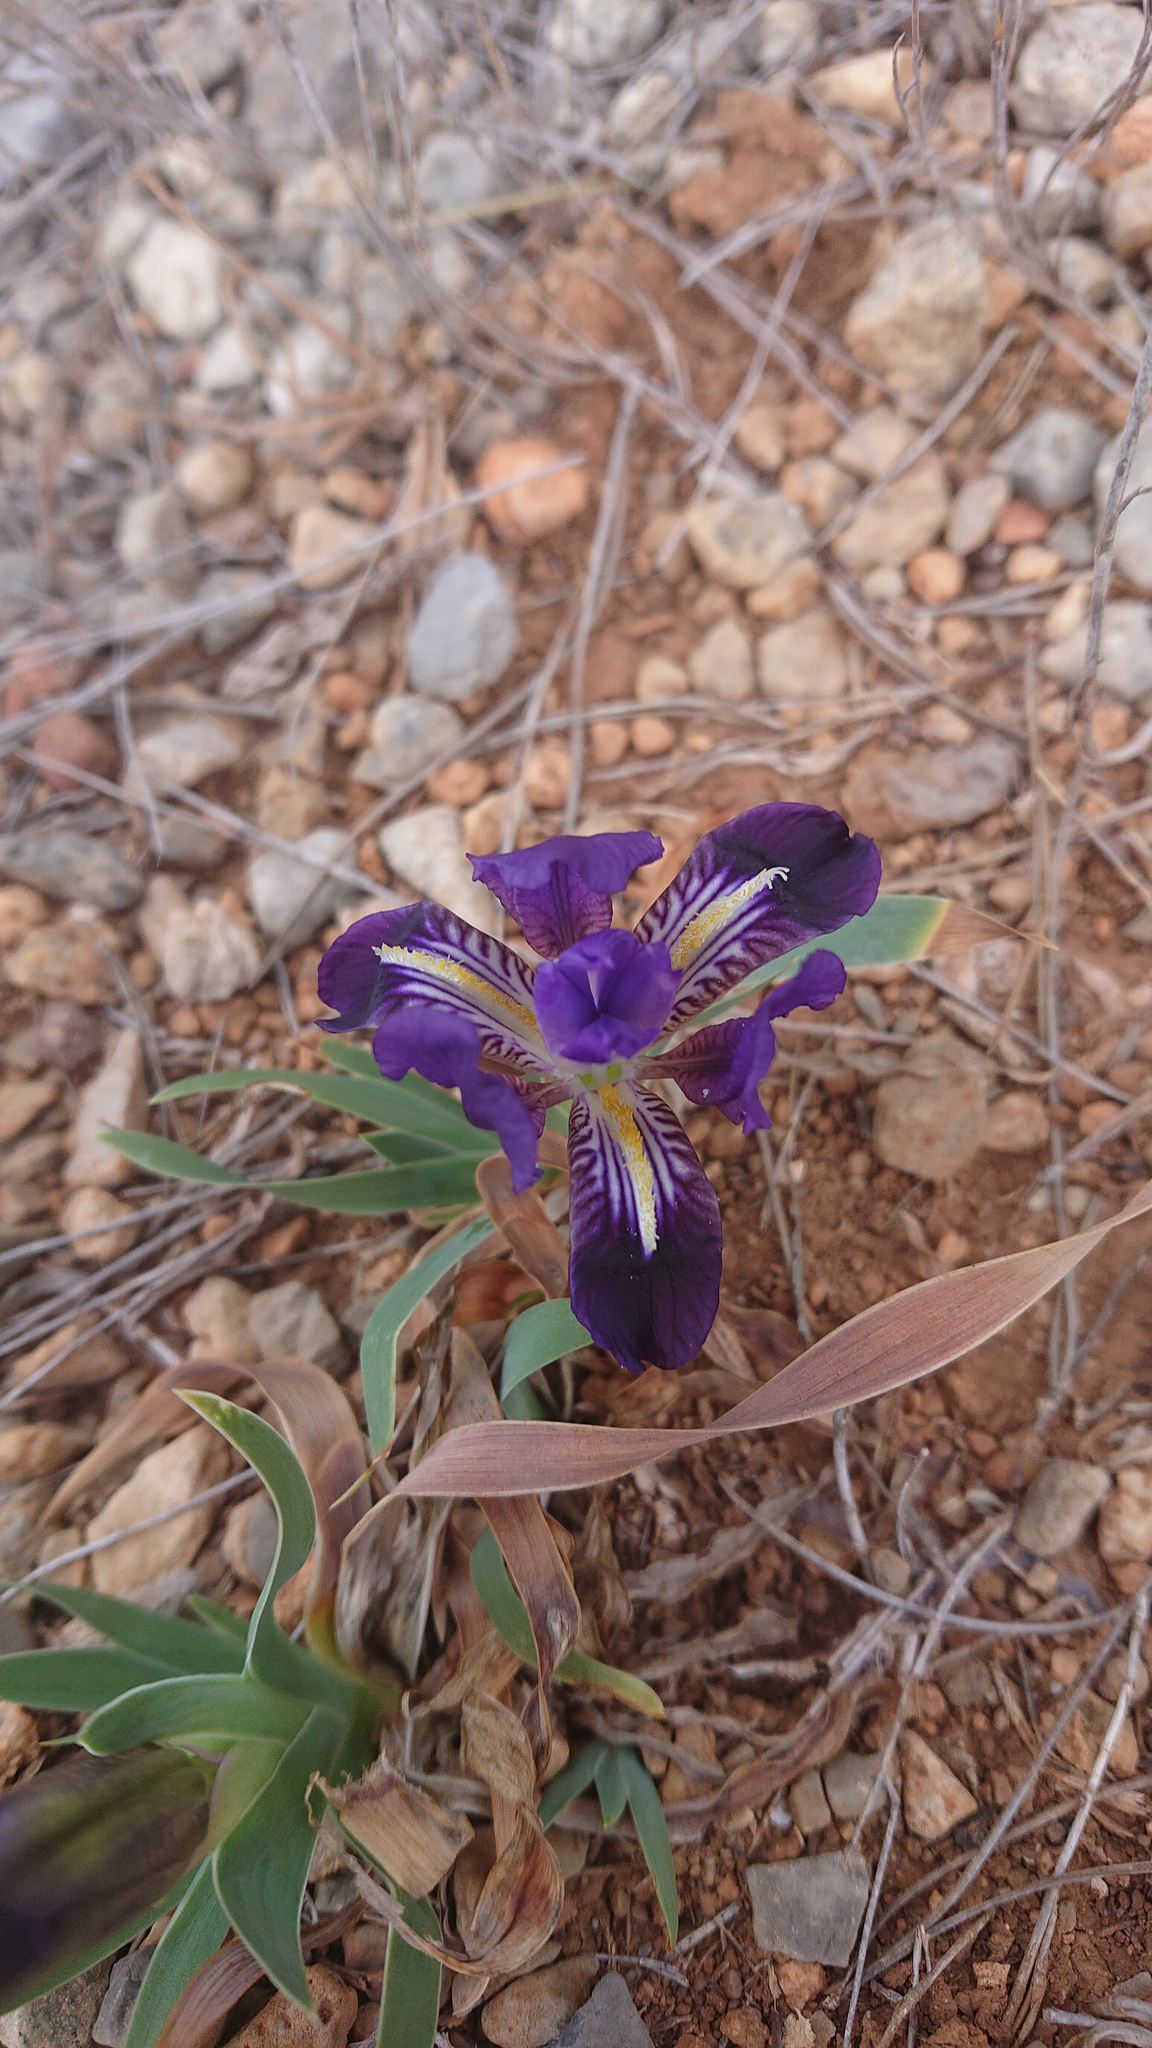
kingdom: Plantae
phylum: Tracheophyta
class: Liliopsida
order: Asparagales
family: Iridaceae
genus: Iris
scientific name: Iris lutescens
